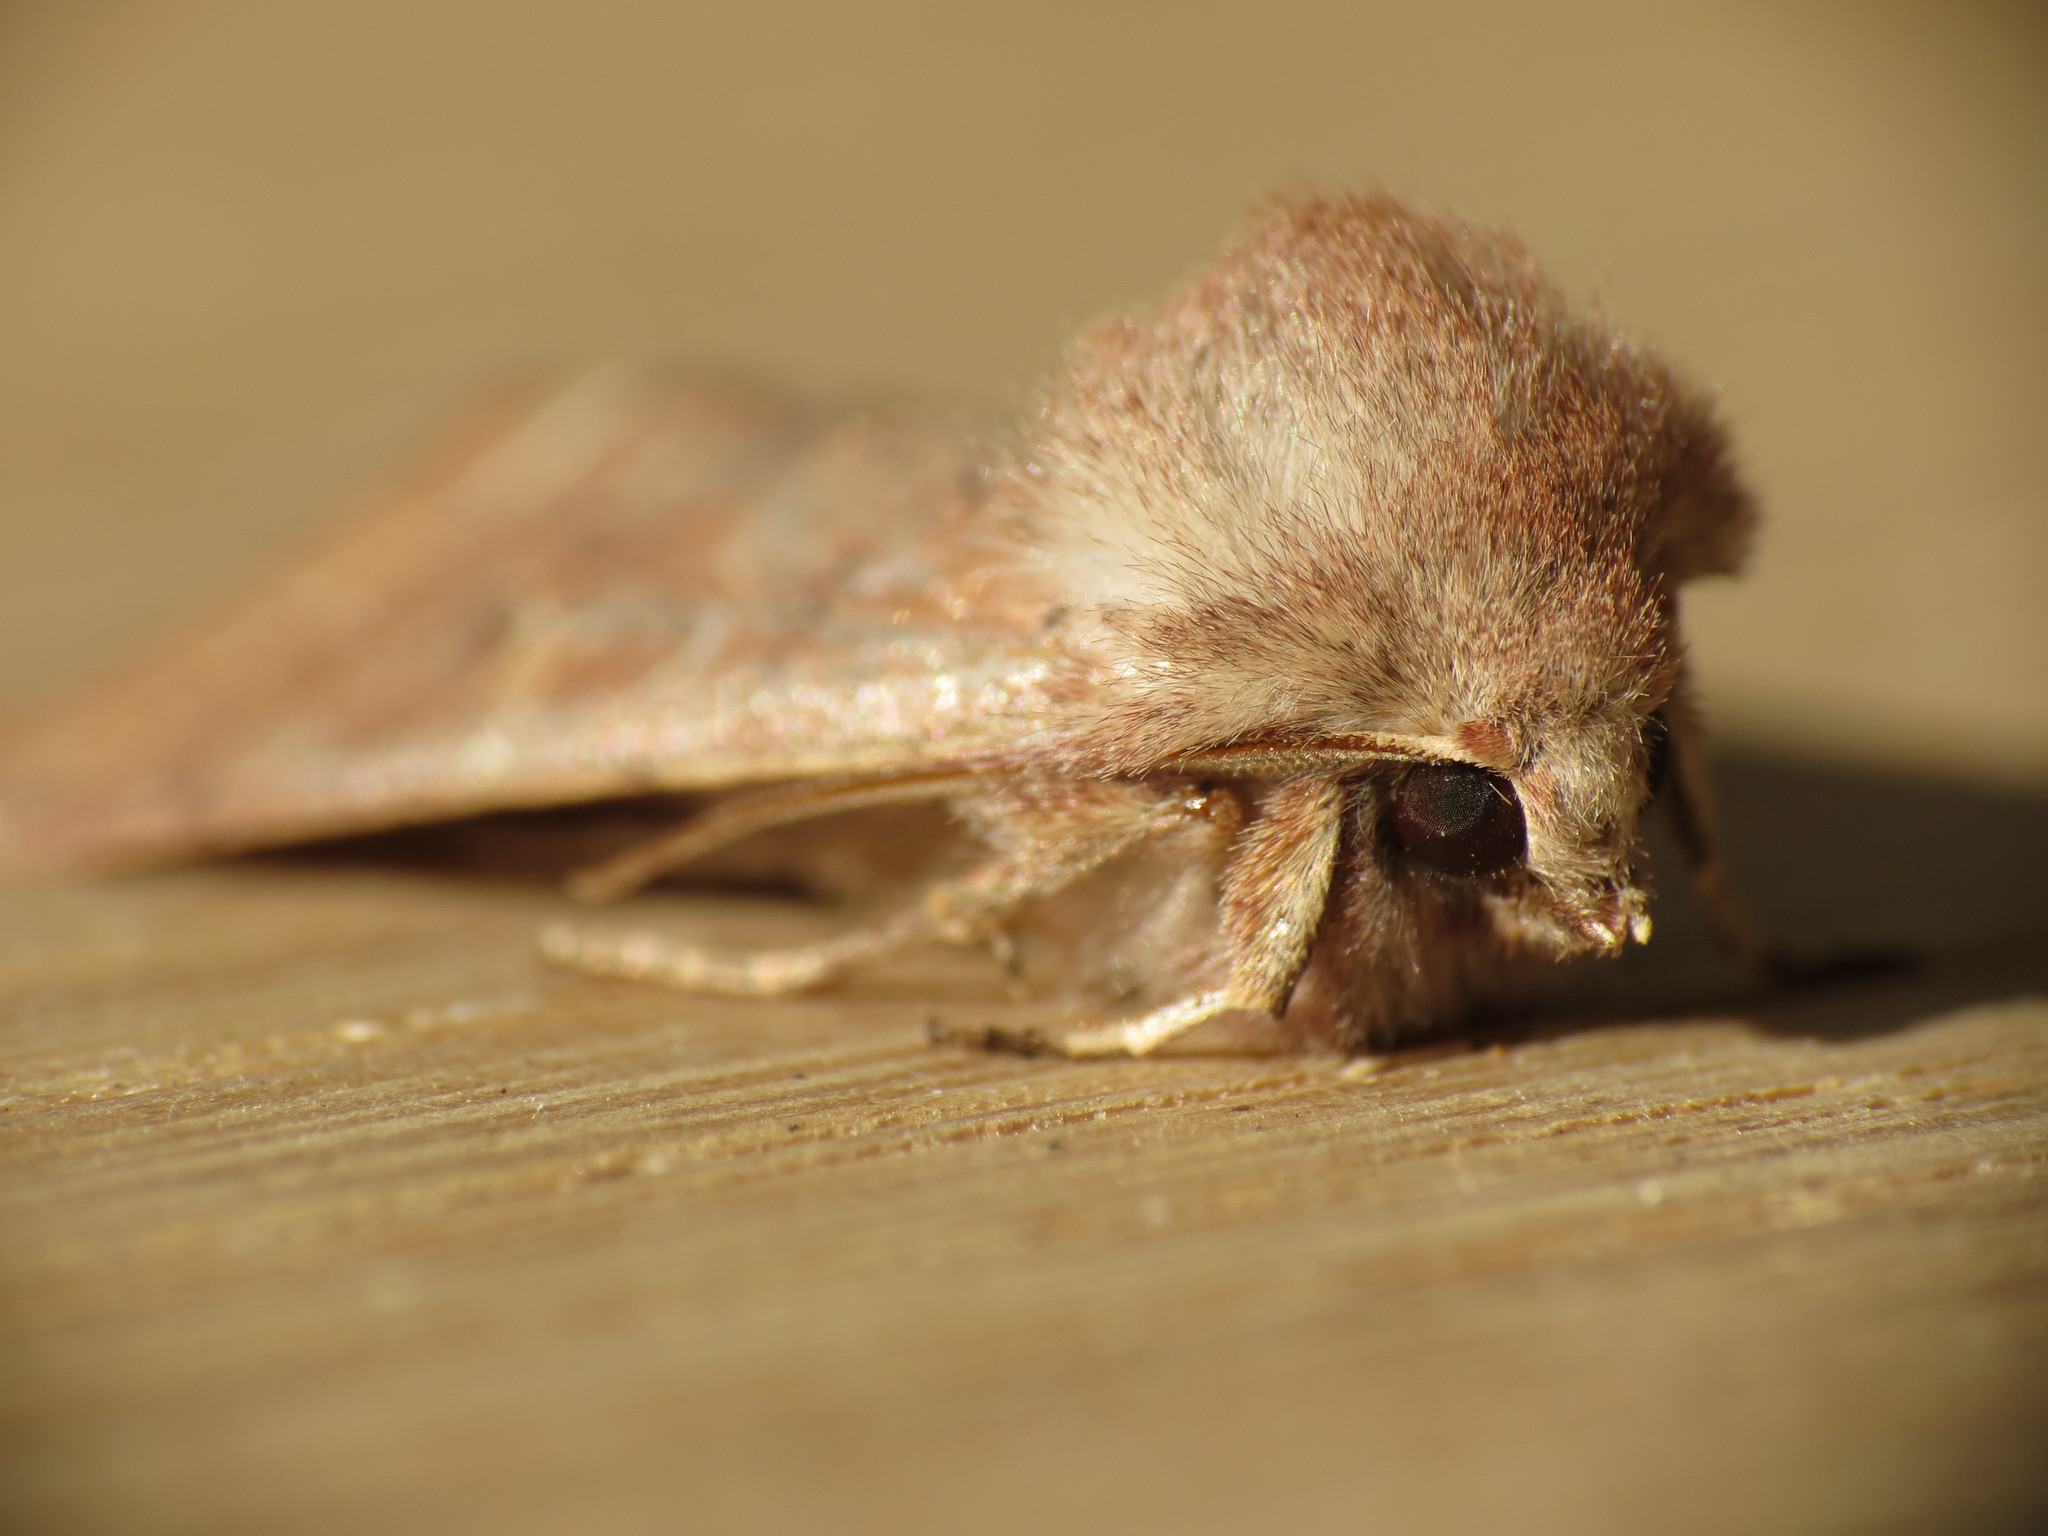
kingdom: Animalia
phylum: Arthropoda
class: Insecta
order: Lepidoptera
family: Noctuidae
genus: Orthosia
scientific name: Orthosia cerasi
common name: Common quaker
